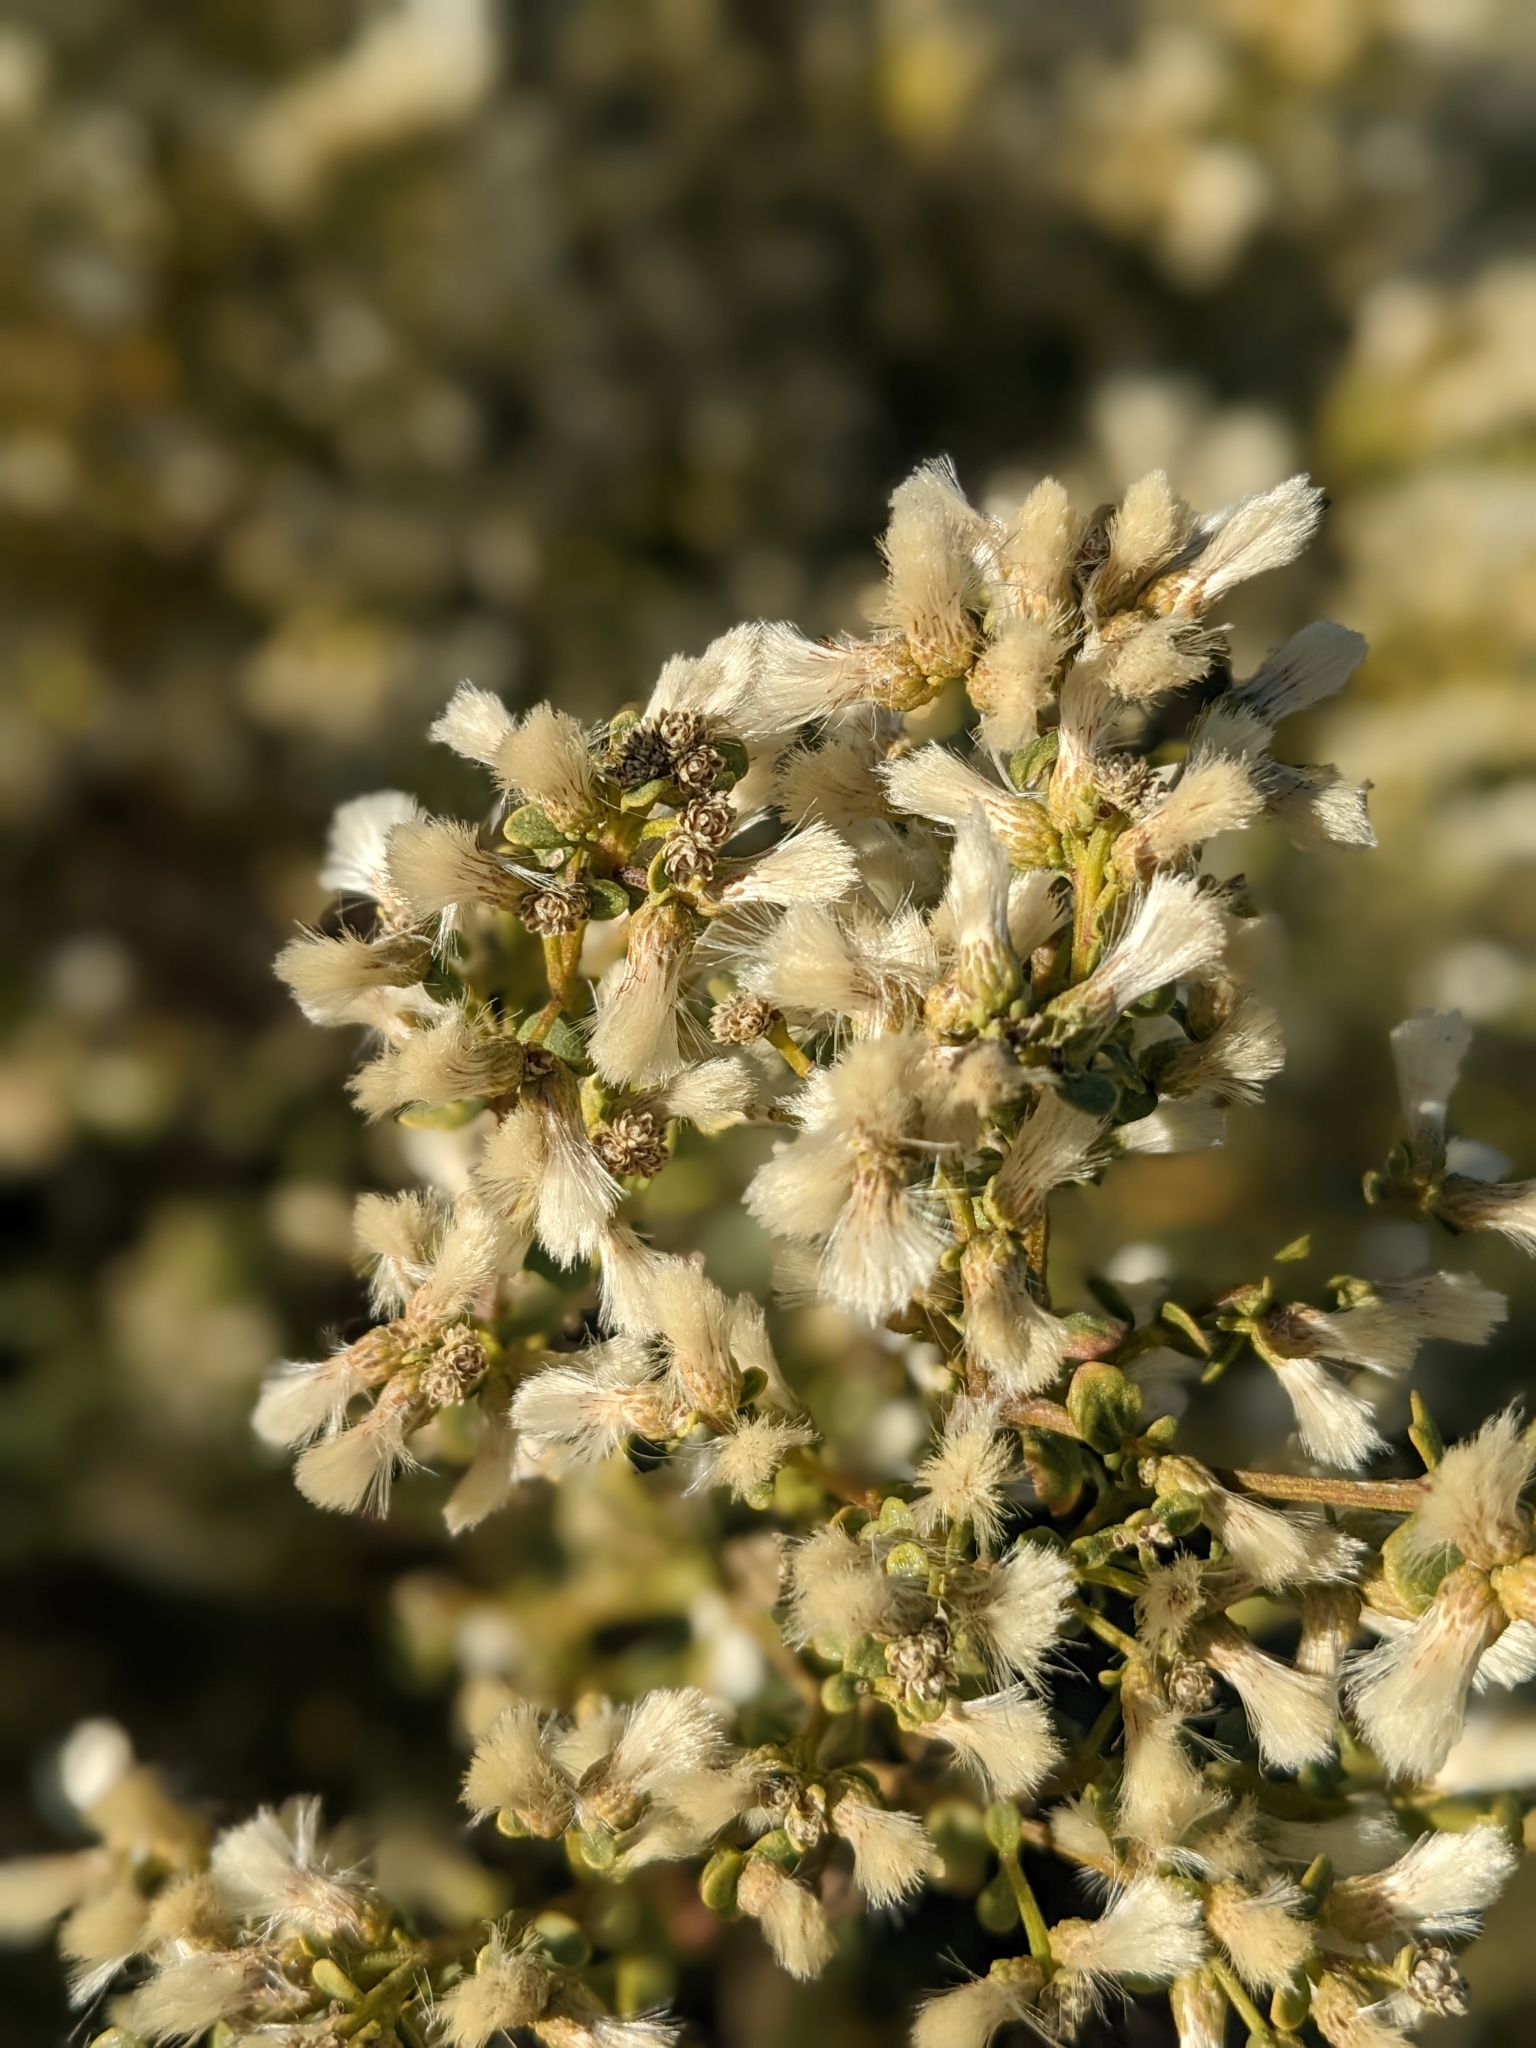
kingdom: Plantae
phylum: Tracheophyta
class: Magnoliopsida
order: Asterales
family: Asteraceae
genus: Baccharis
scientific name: Baccharis pilularis
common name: Coyotebrush
